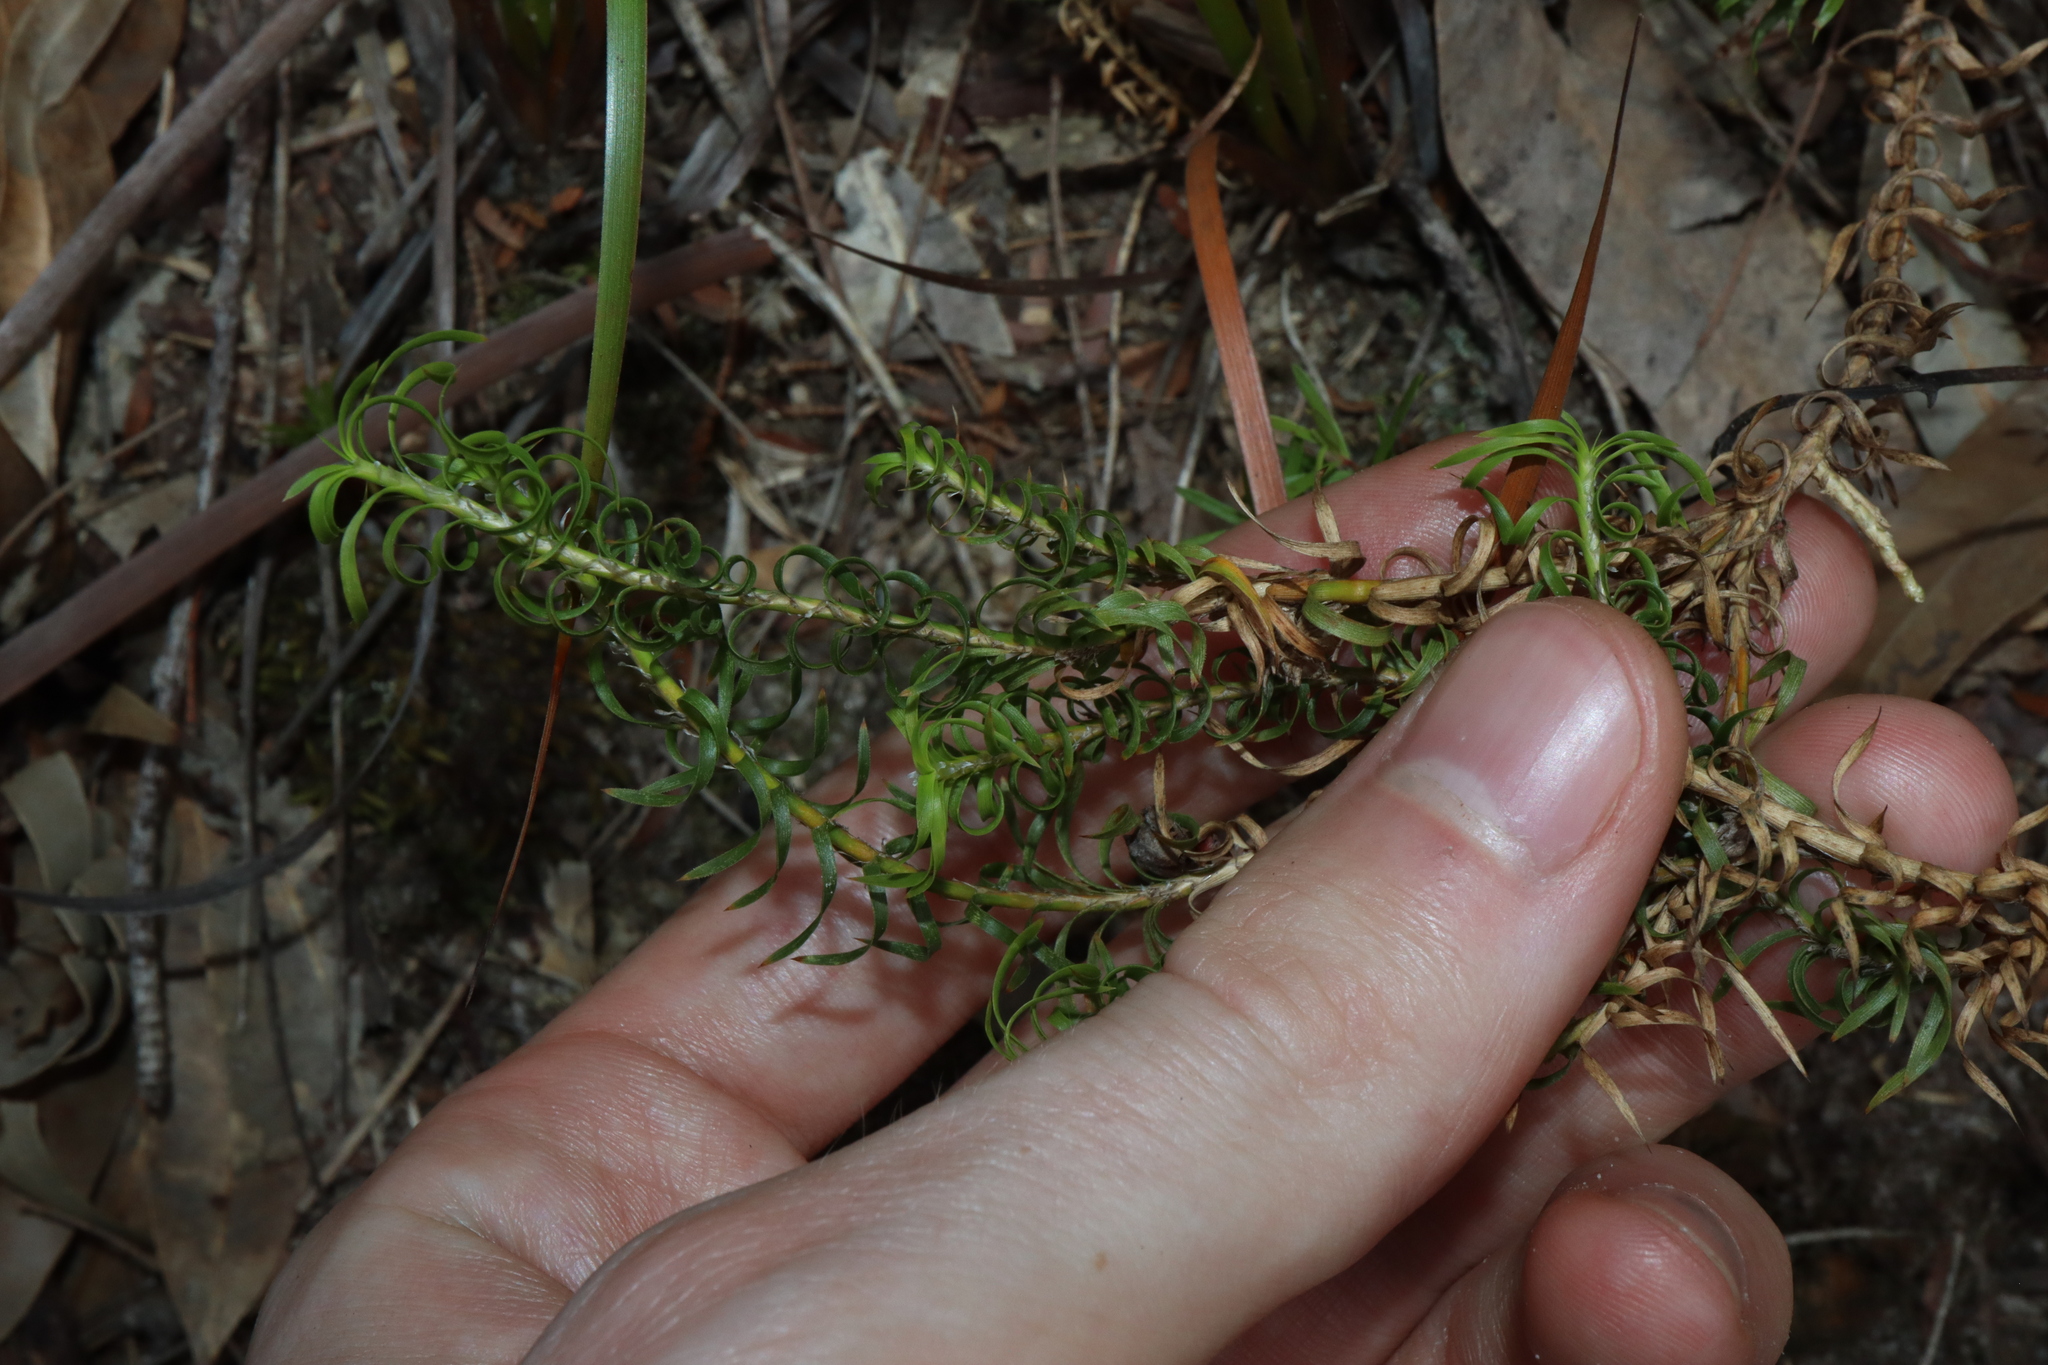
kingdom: Plantae
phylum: Tracheophyta
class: Liliopsida
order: Asparagales
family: Asparagaceae
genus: Lomandra
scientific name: Lomandra obliqua
